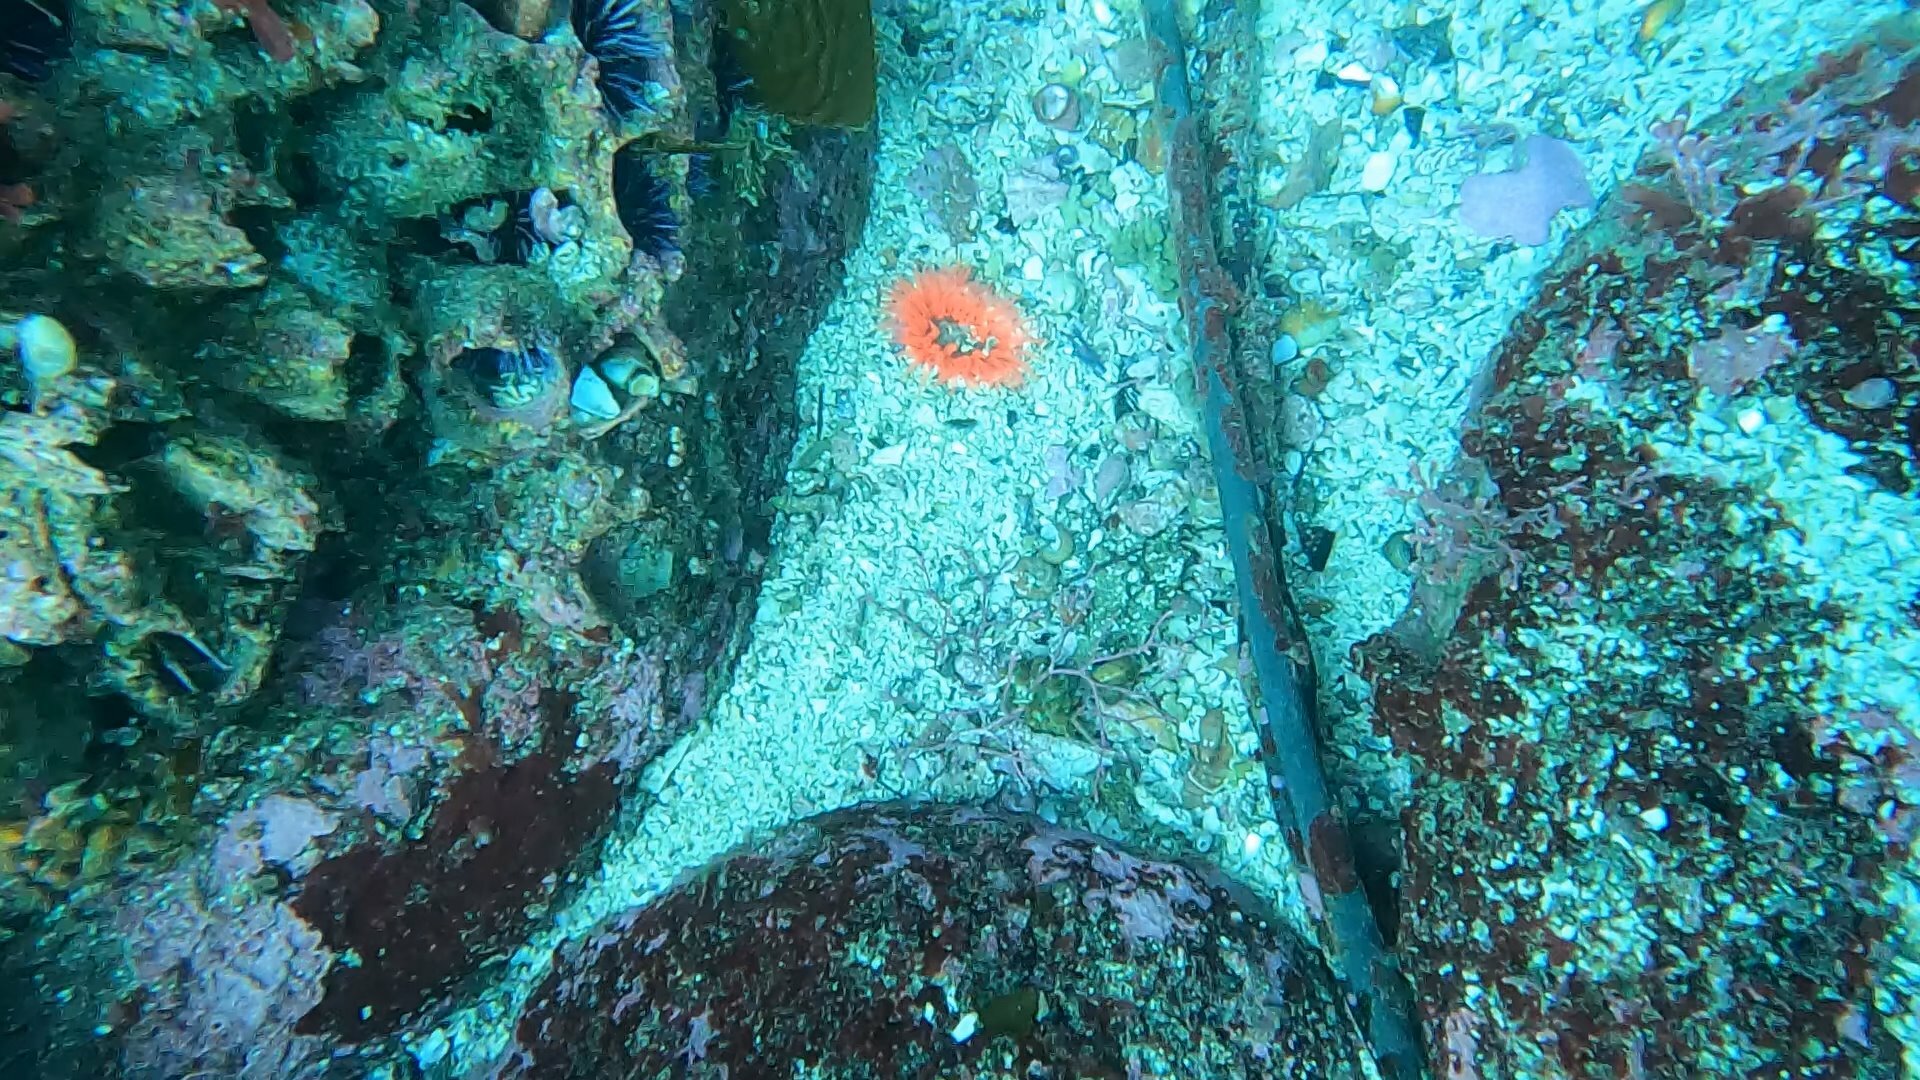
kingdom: Animalia
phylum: Cnidaria
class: Anthozoa
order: Actiniaria
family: Actiniidae
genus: Anthopleura
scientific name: Anthopleura artemisia
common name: Buried sea anemone
